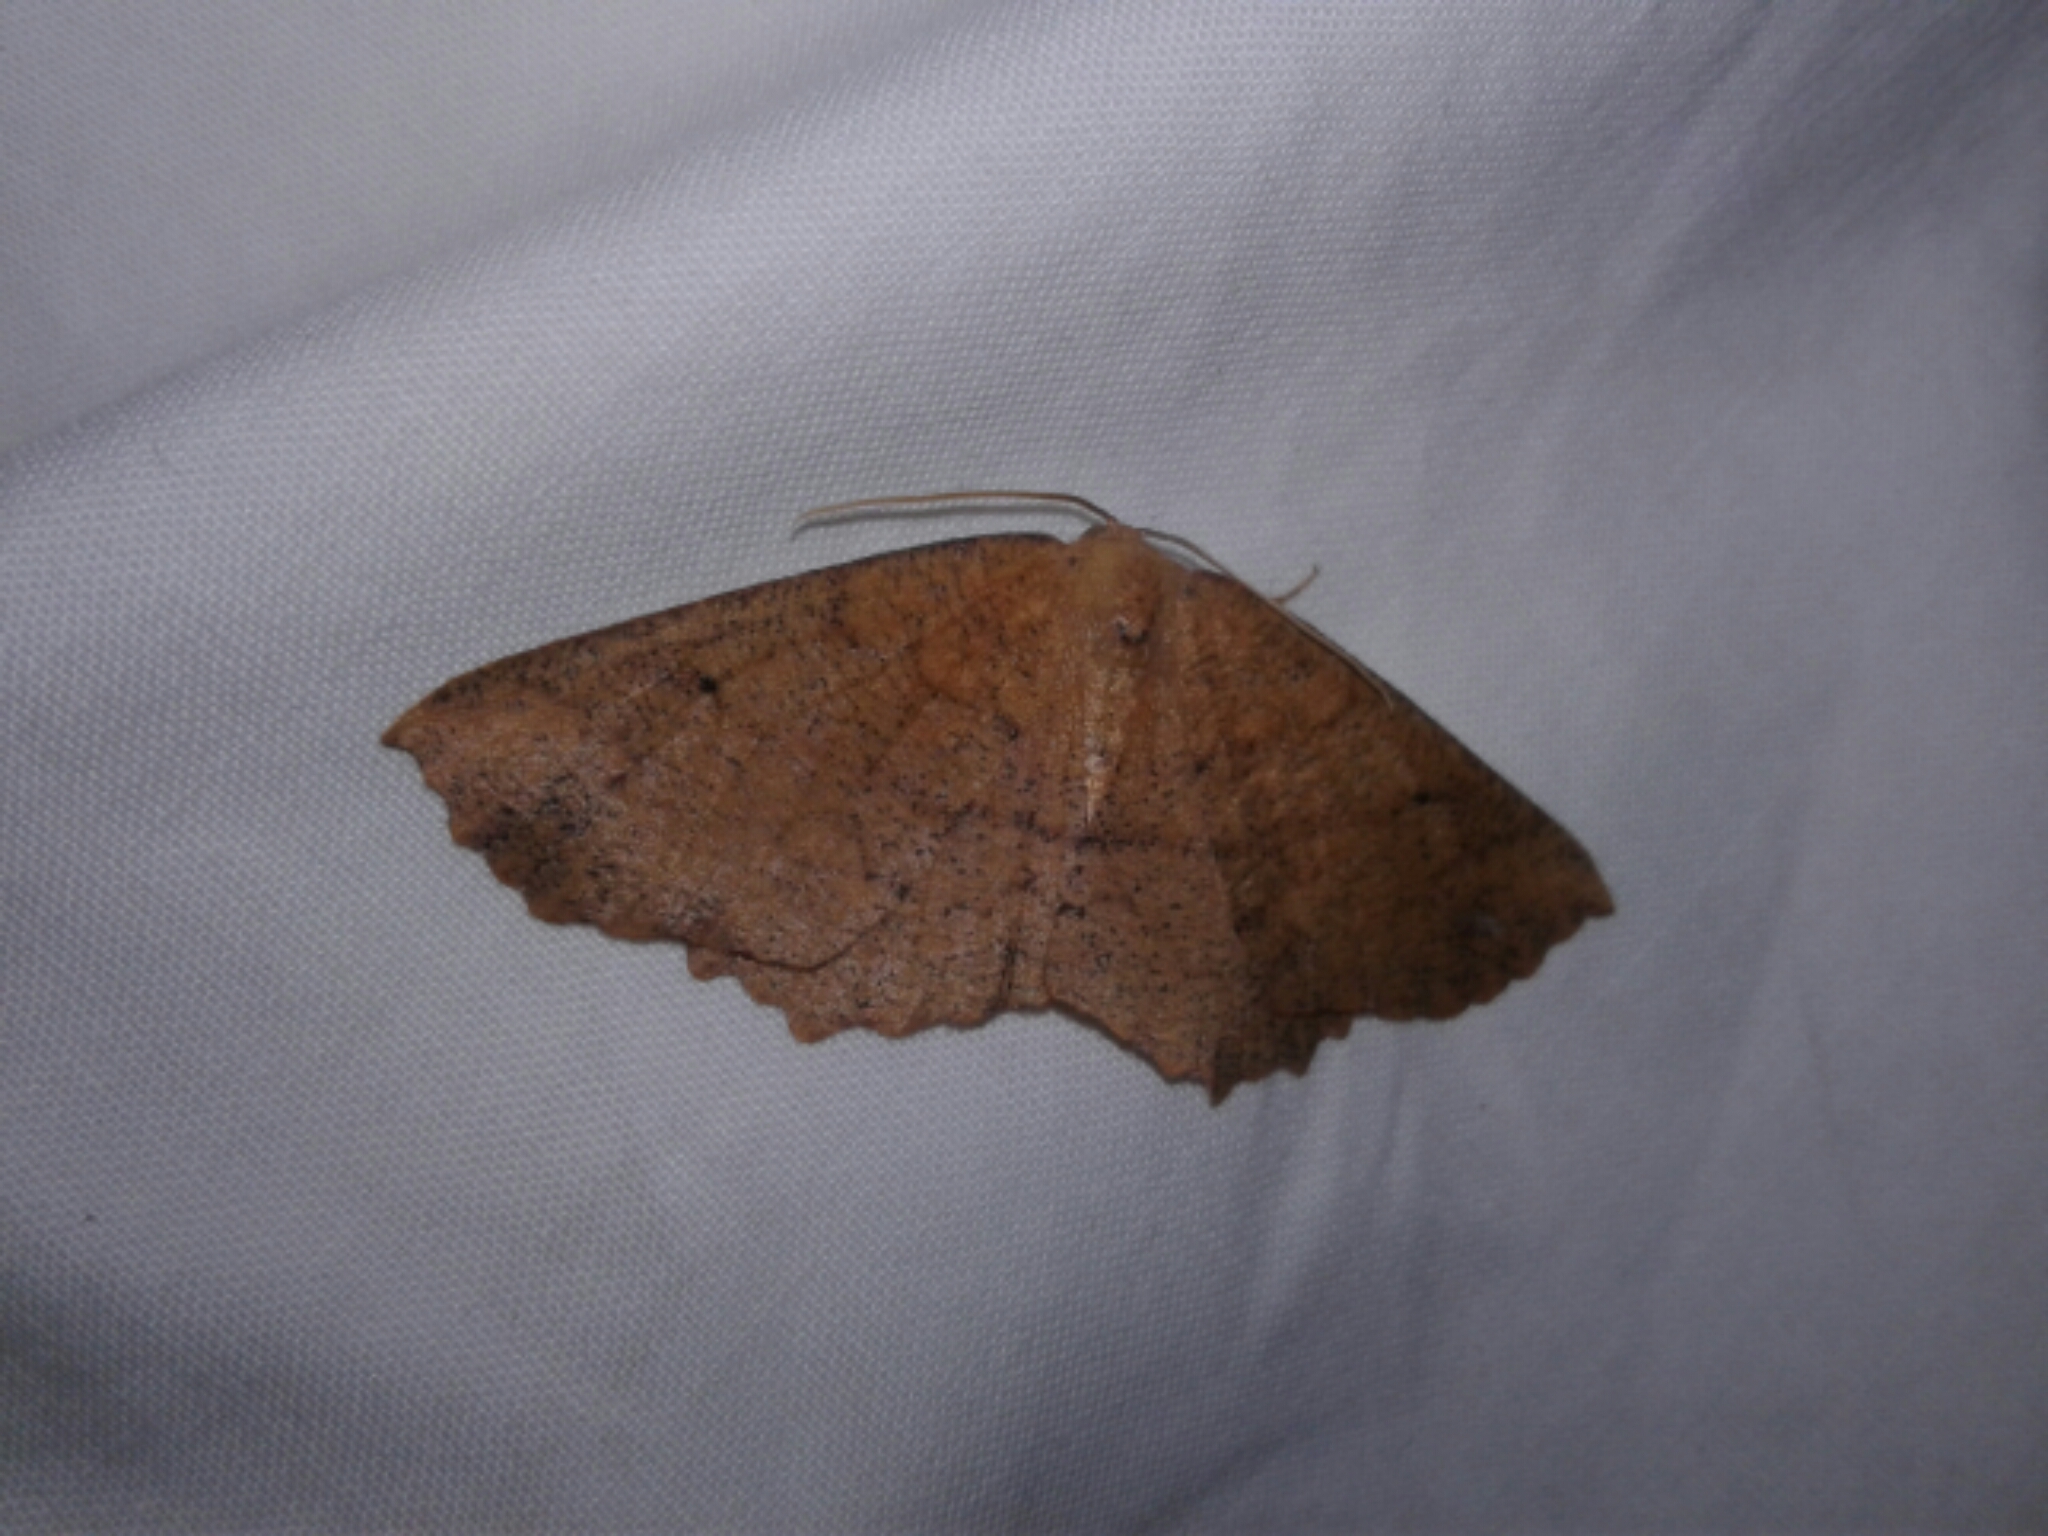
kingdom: Animalia
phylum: Arthropoda
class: Insecta
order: Lepidoptera
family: Geometridae
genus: Xyridacma
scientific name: Xyridacma ustaria
